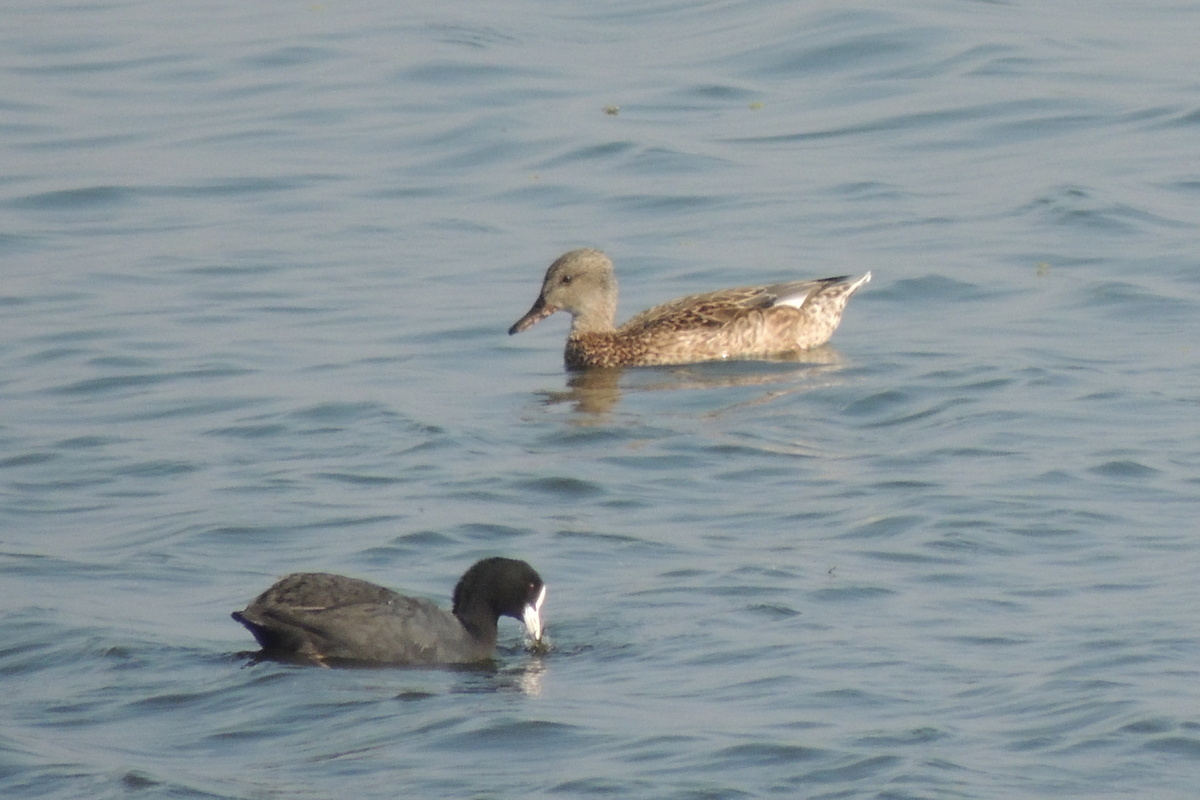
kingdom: Animalia
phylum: Chordata
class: Aves
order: Gruiformes
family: Rallidae
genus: Fulica
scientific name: Fulica atra
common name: Eurasian coot
